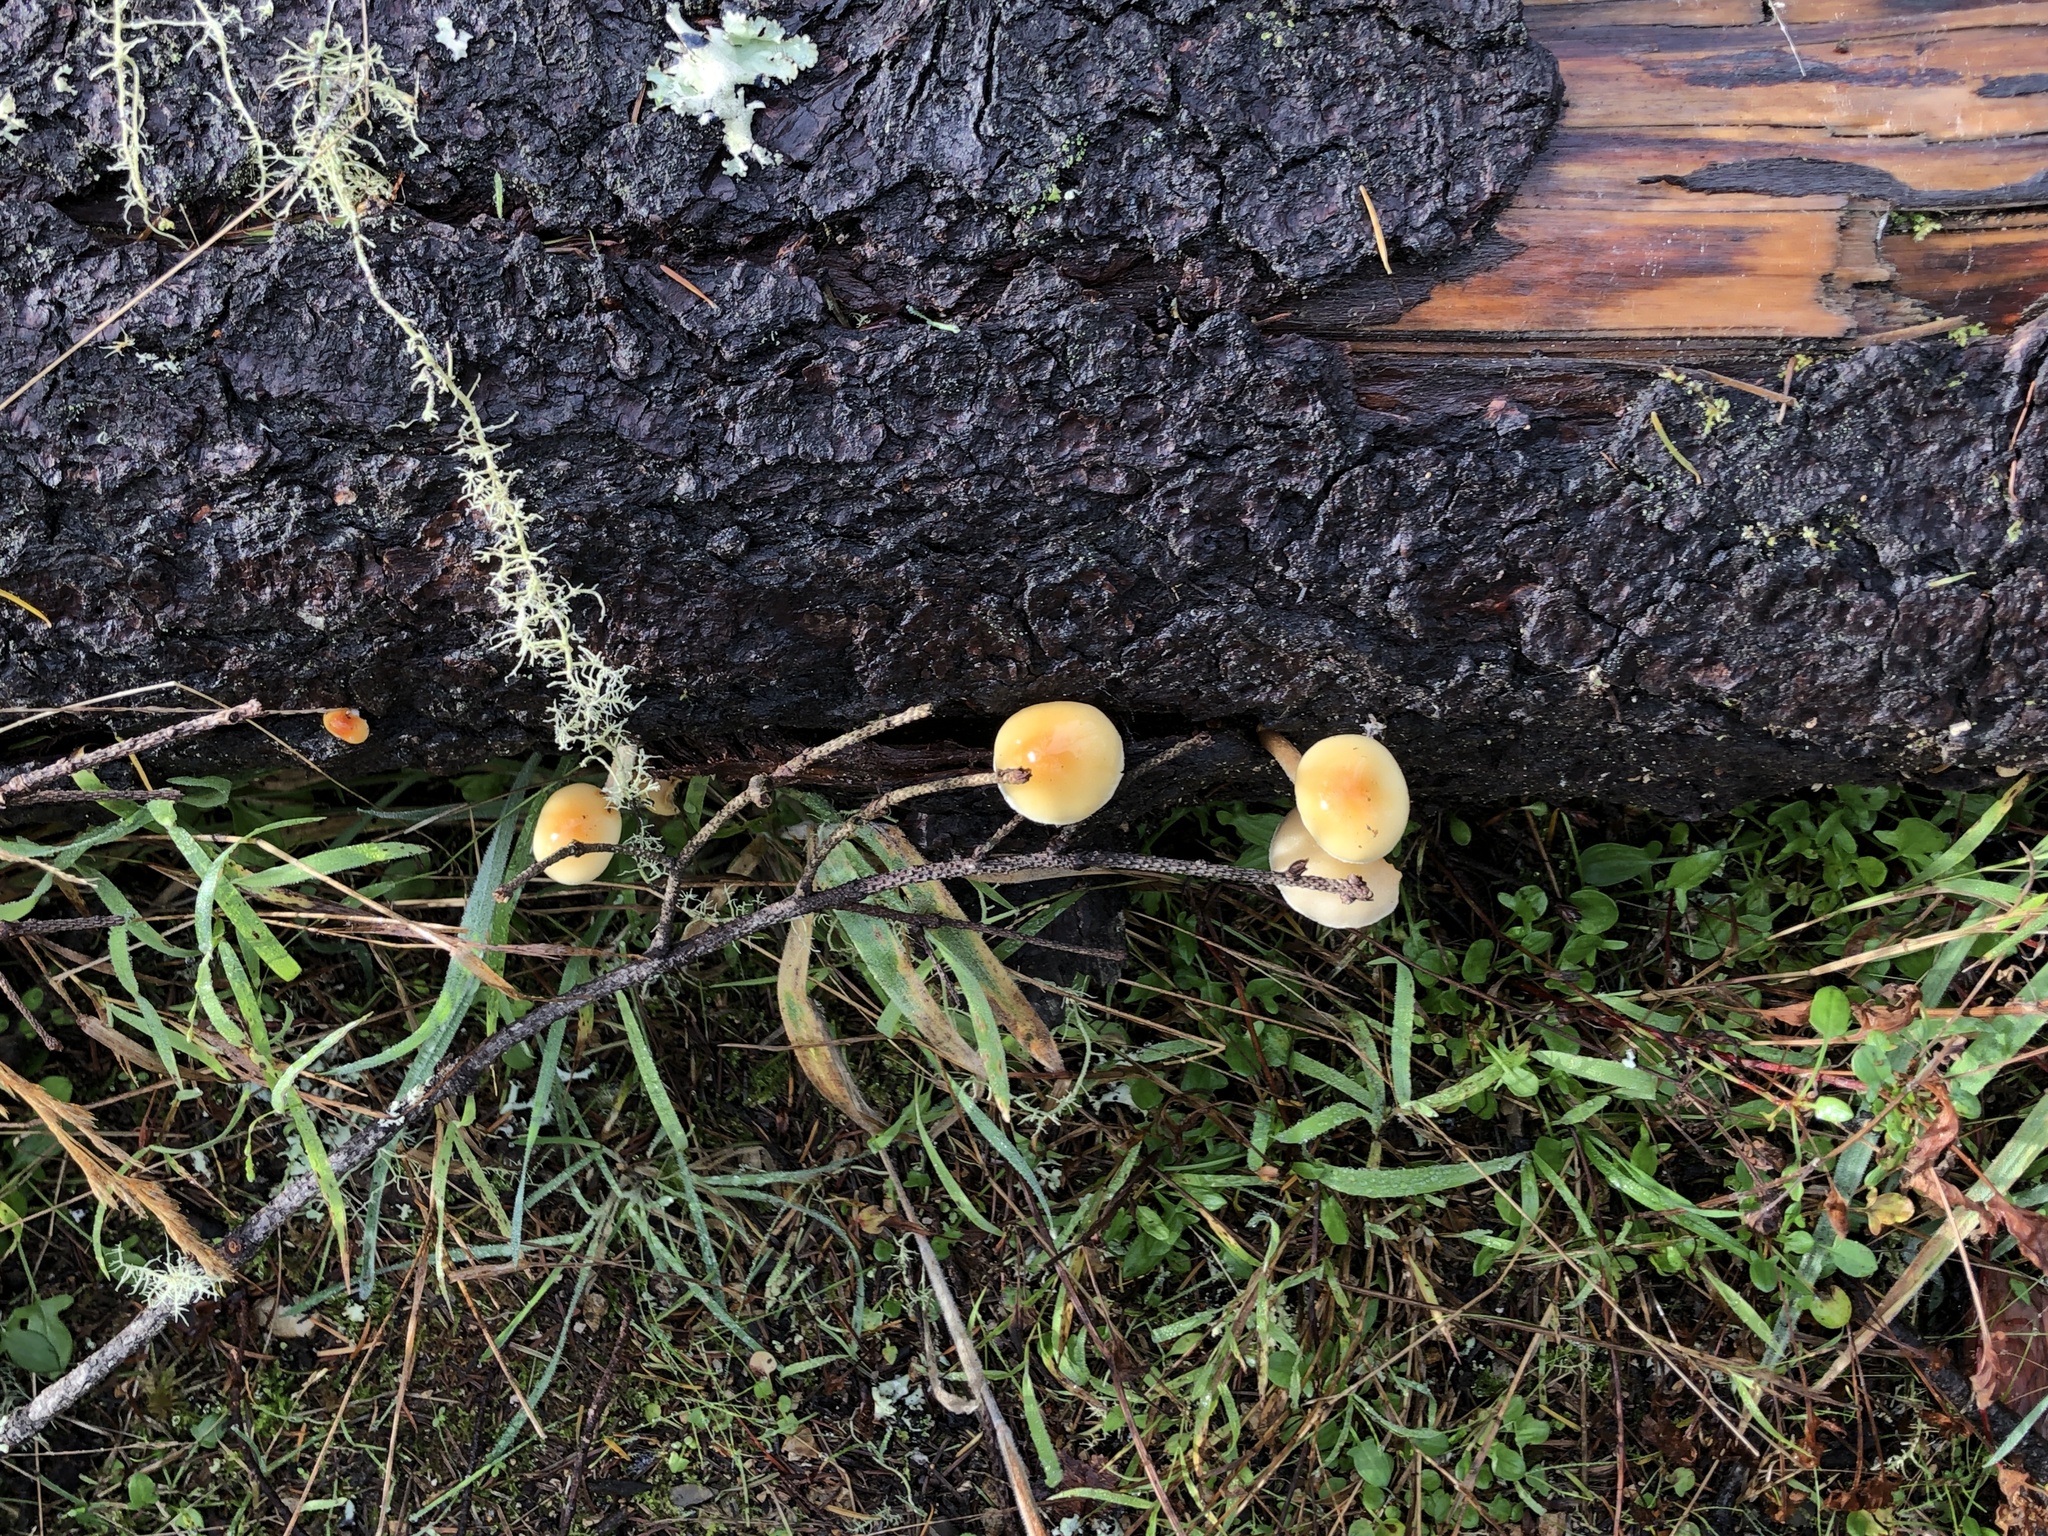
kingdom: Fungi
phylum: Basidiomycota
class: Agaricomycetes
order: Agaricales
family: Strophariaceae
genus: Hypholoma
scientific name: Hypholoma capnoides
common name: Conifer tuft
